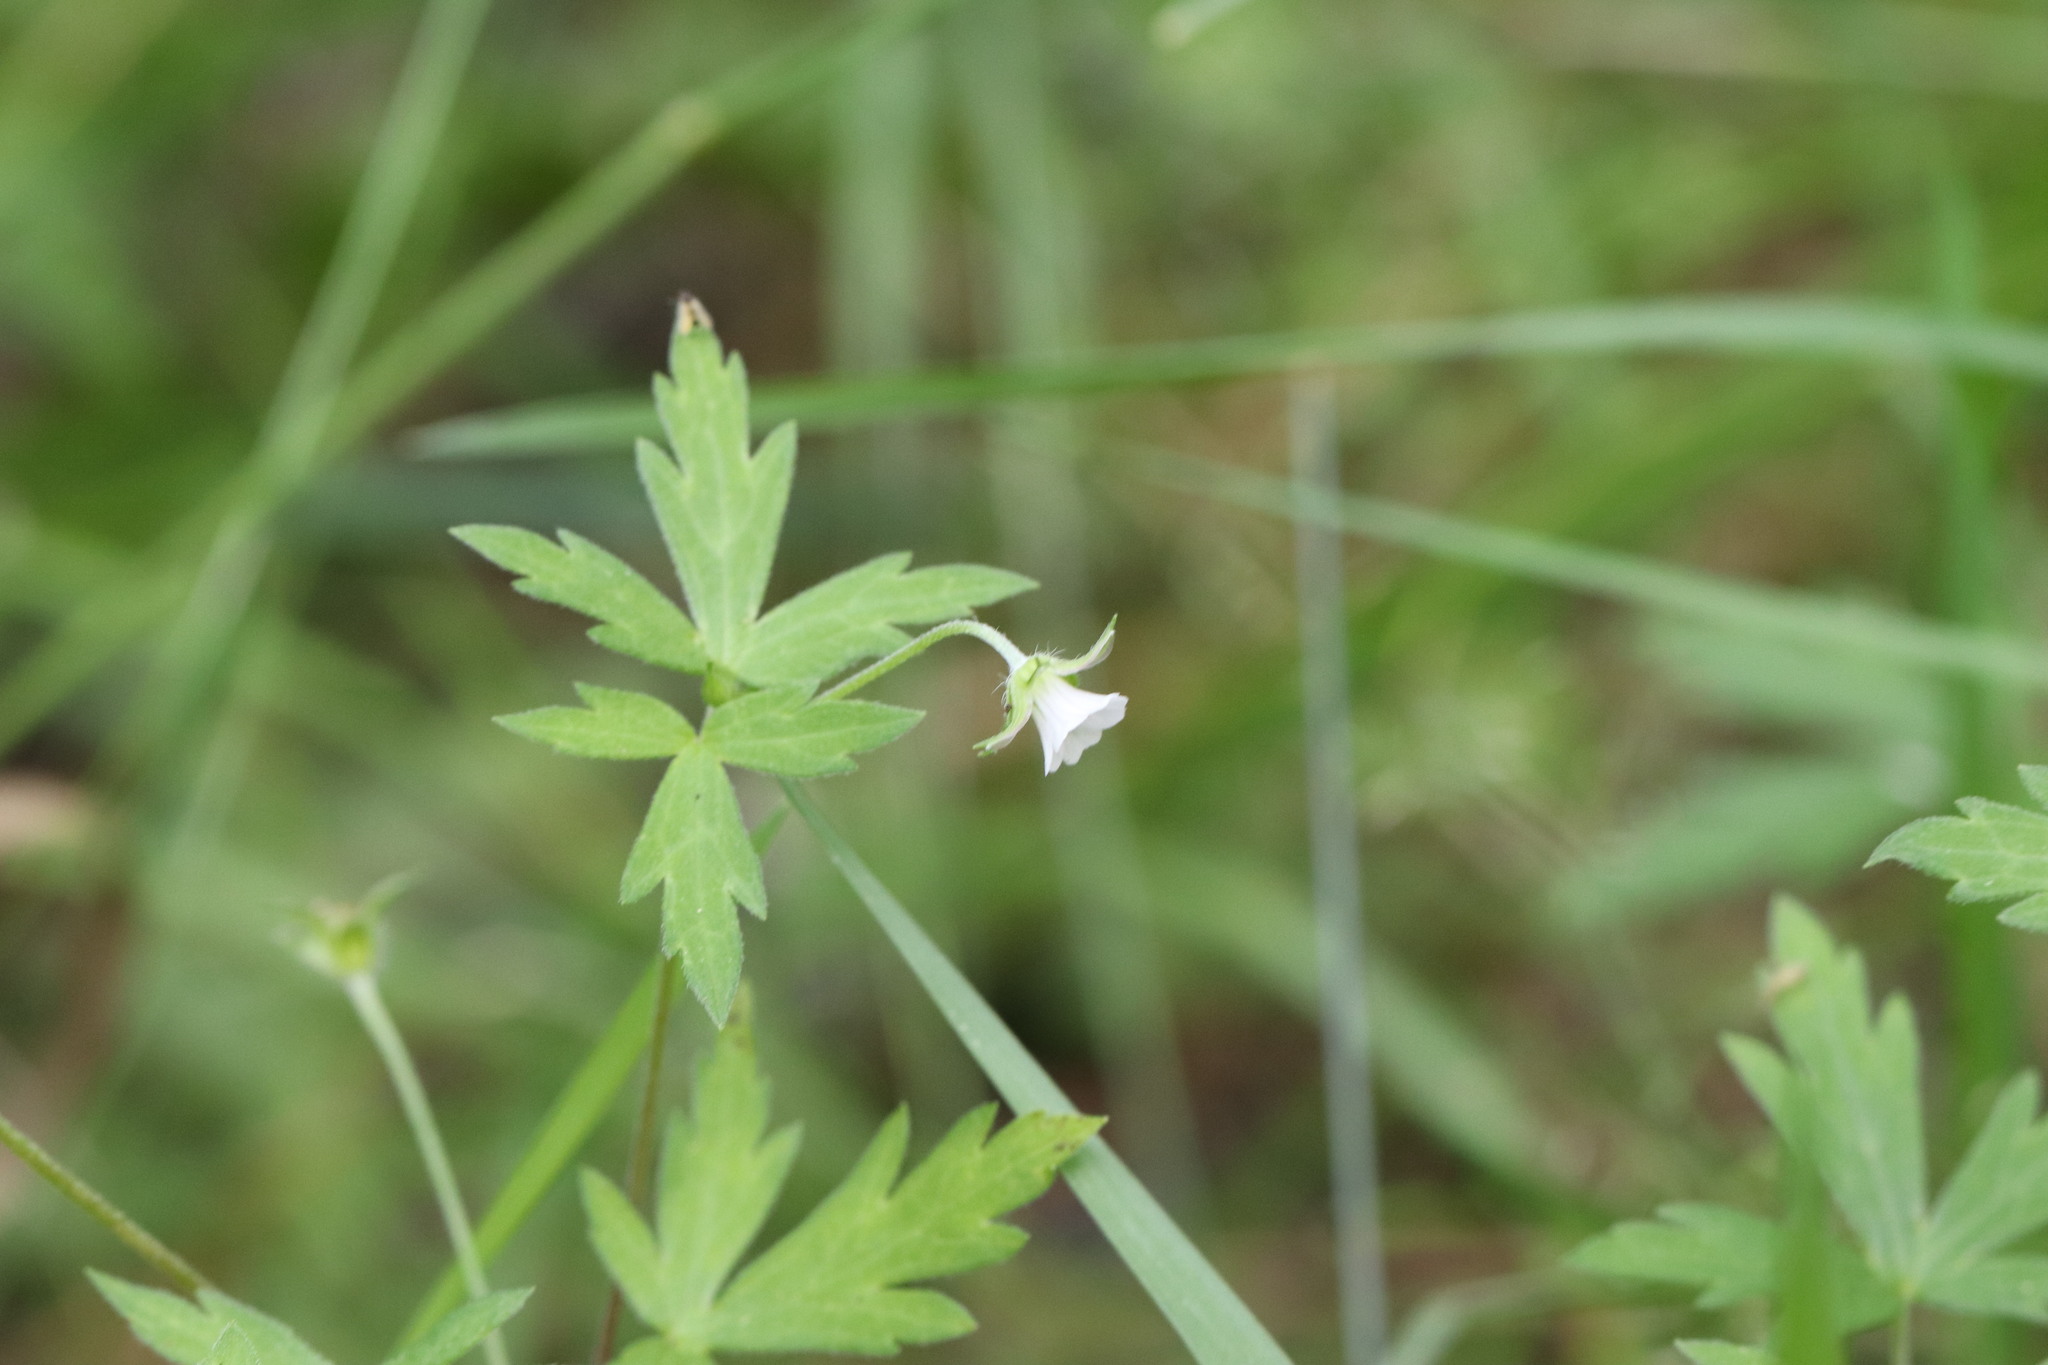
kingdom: Plantae
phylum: Tracheophyta
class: Magnoliopsida
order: Geraniales
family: Geraniaceae
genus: Geranium
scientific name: Geranium sibiricum
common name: Siberian crane's-bill
